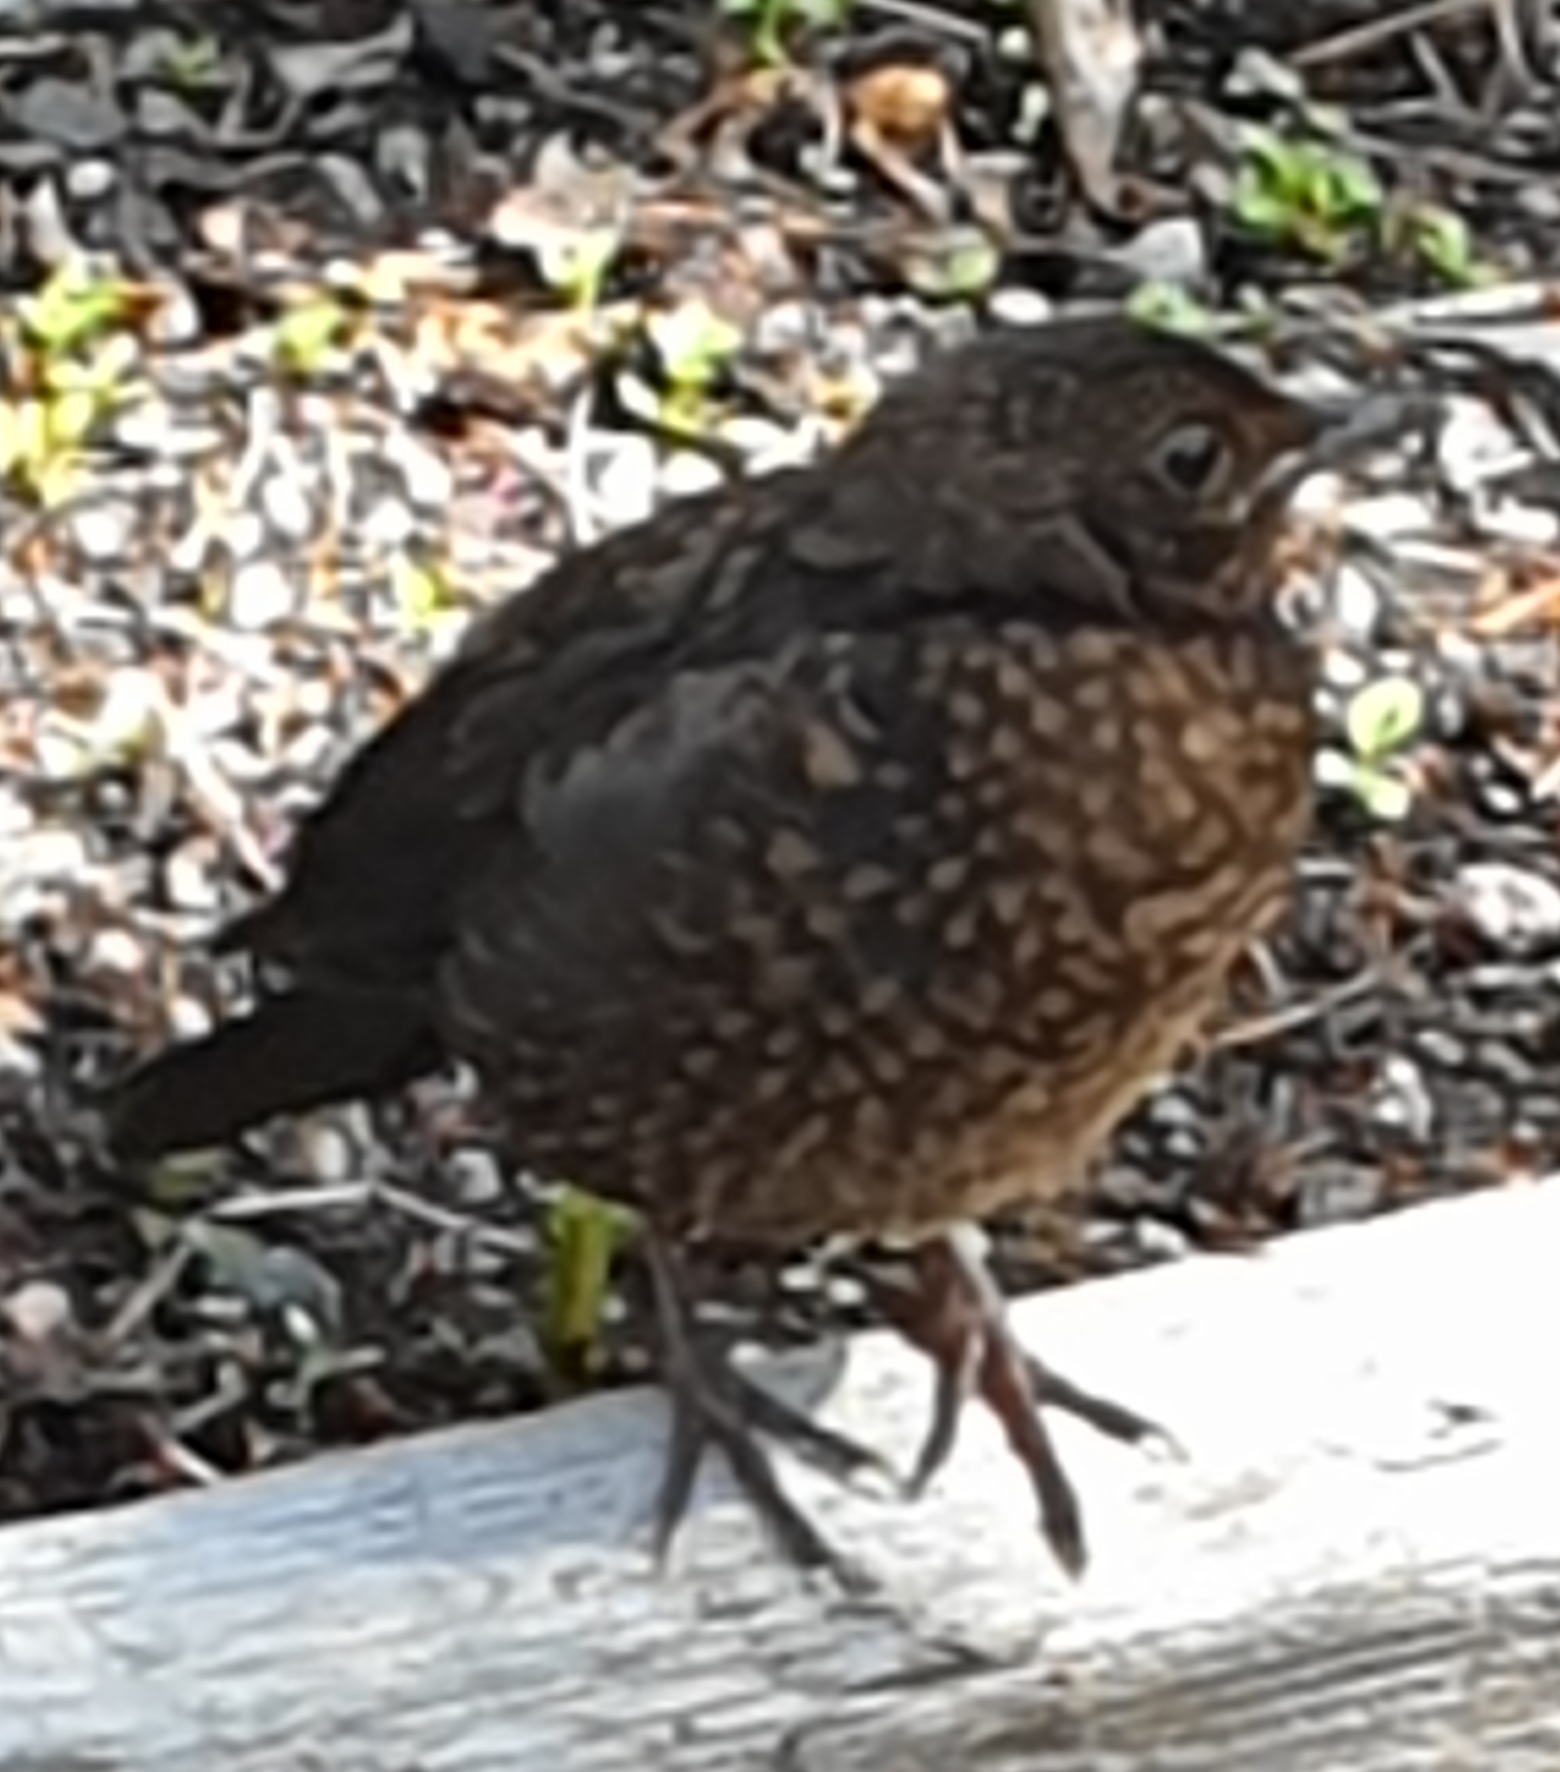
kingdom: Animalia
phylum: Chordata
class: Aves
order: Passeriformes
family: Turdidae
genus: Turdus
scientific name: Turdus merula
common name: Common blackbird
